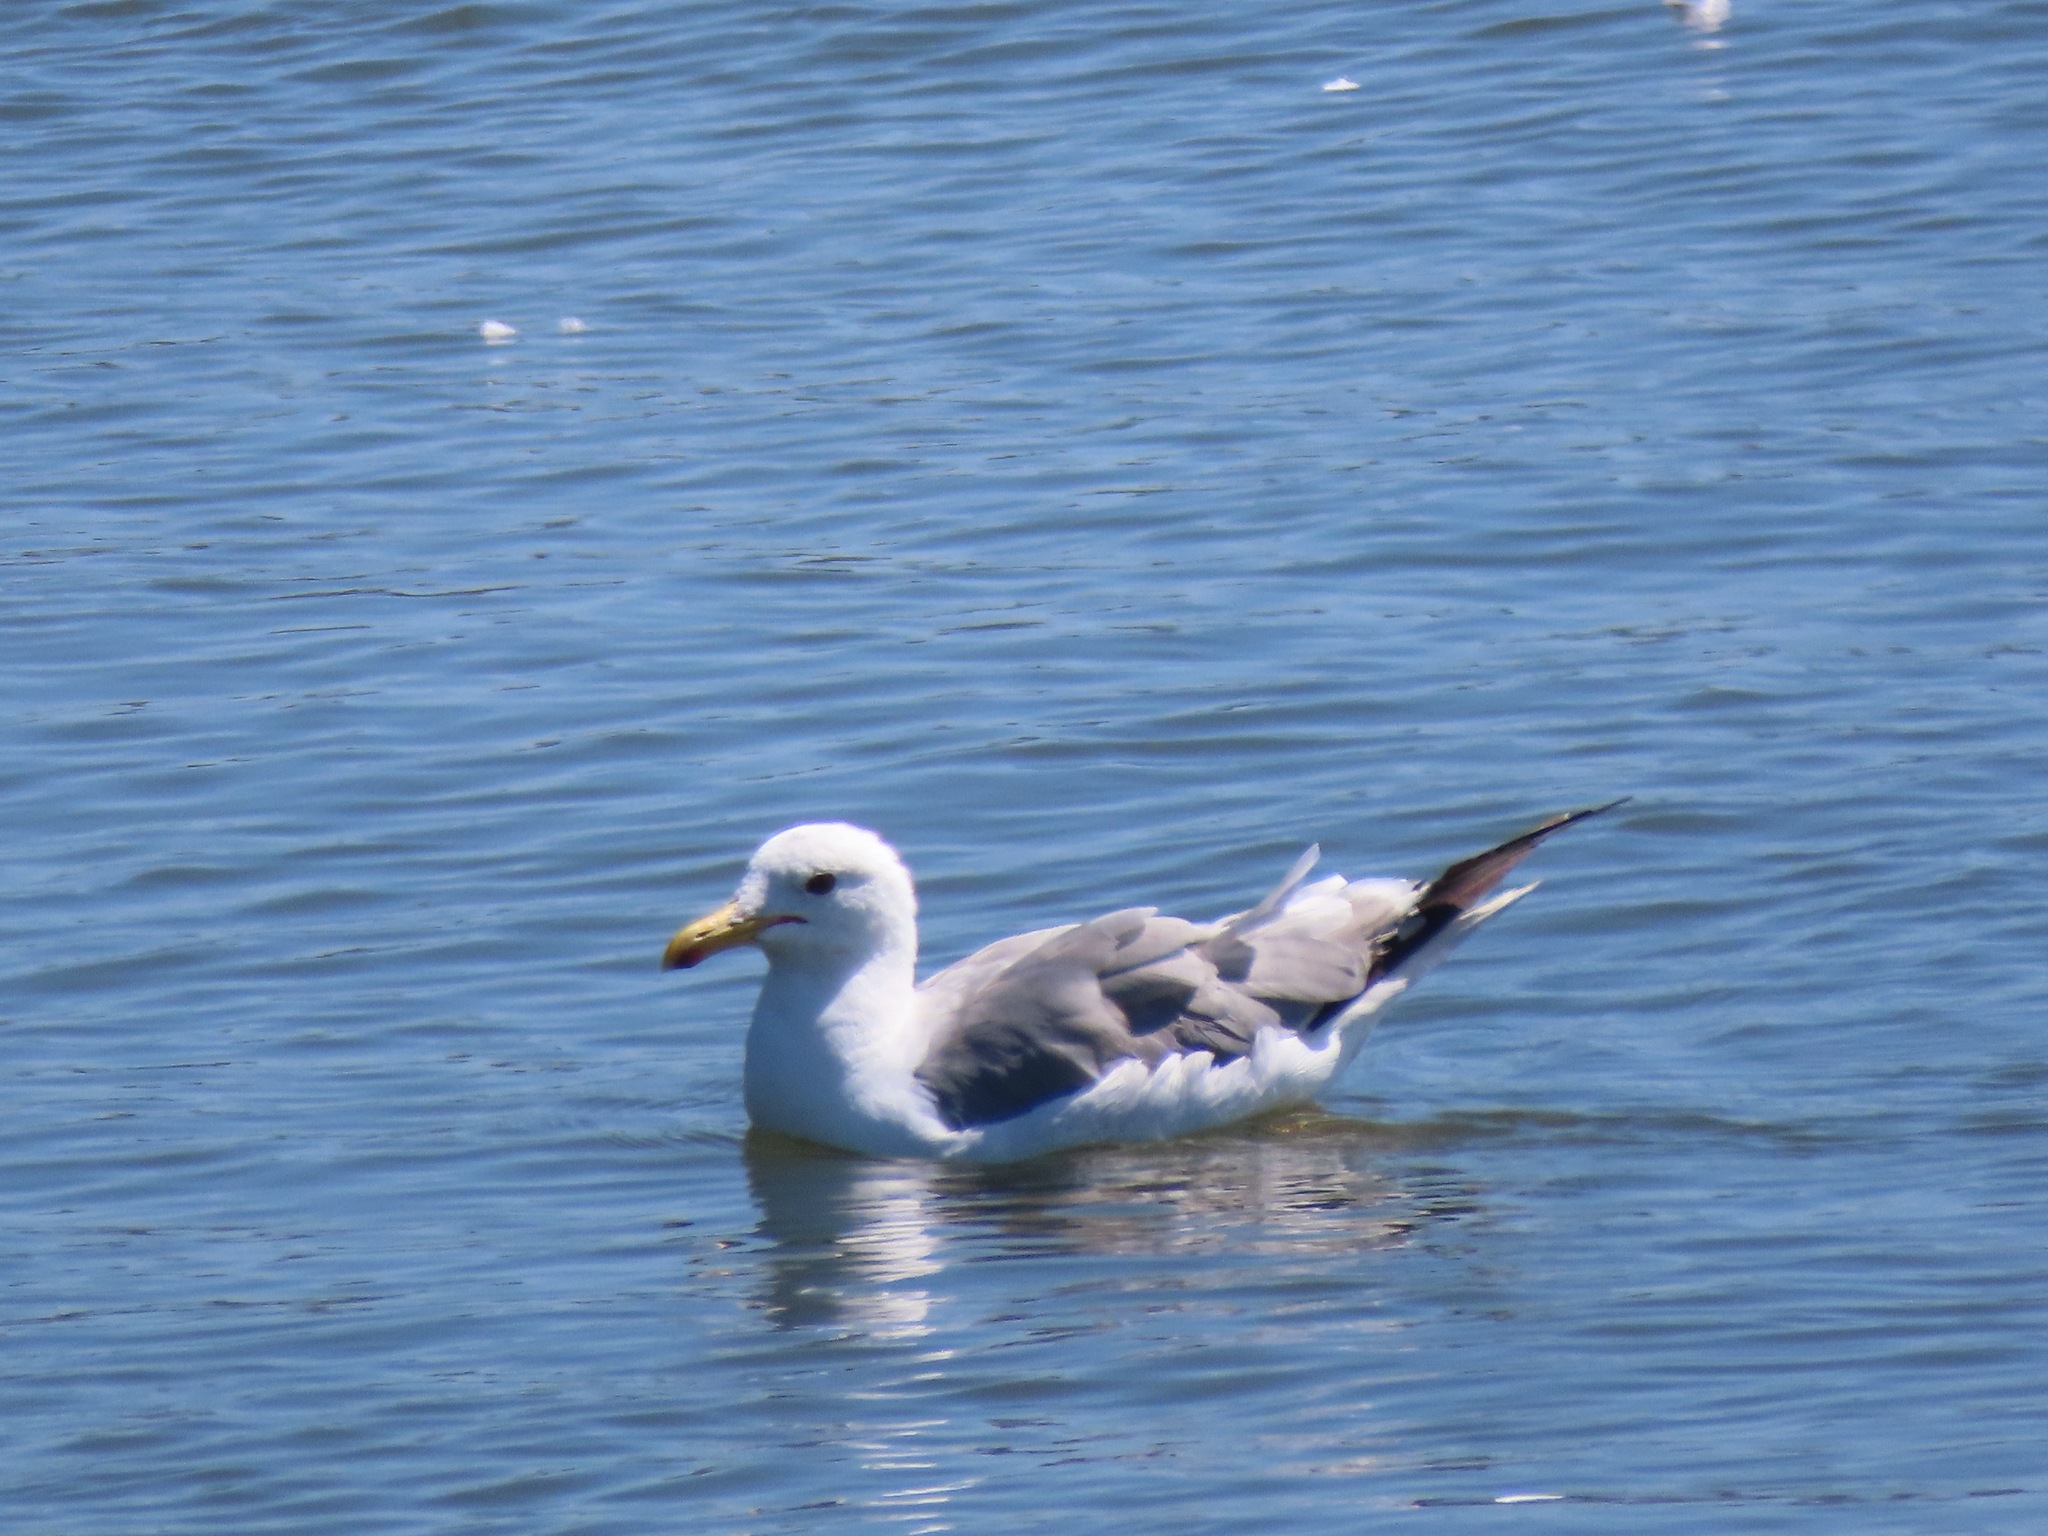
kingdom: Animalia
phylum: Chordata
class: Aves
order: Charadriiformes
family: Laridae
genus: Larus
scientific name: Larus californicus
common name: California gull
